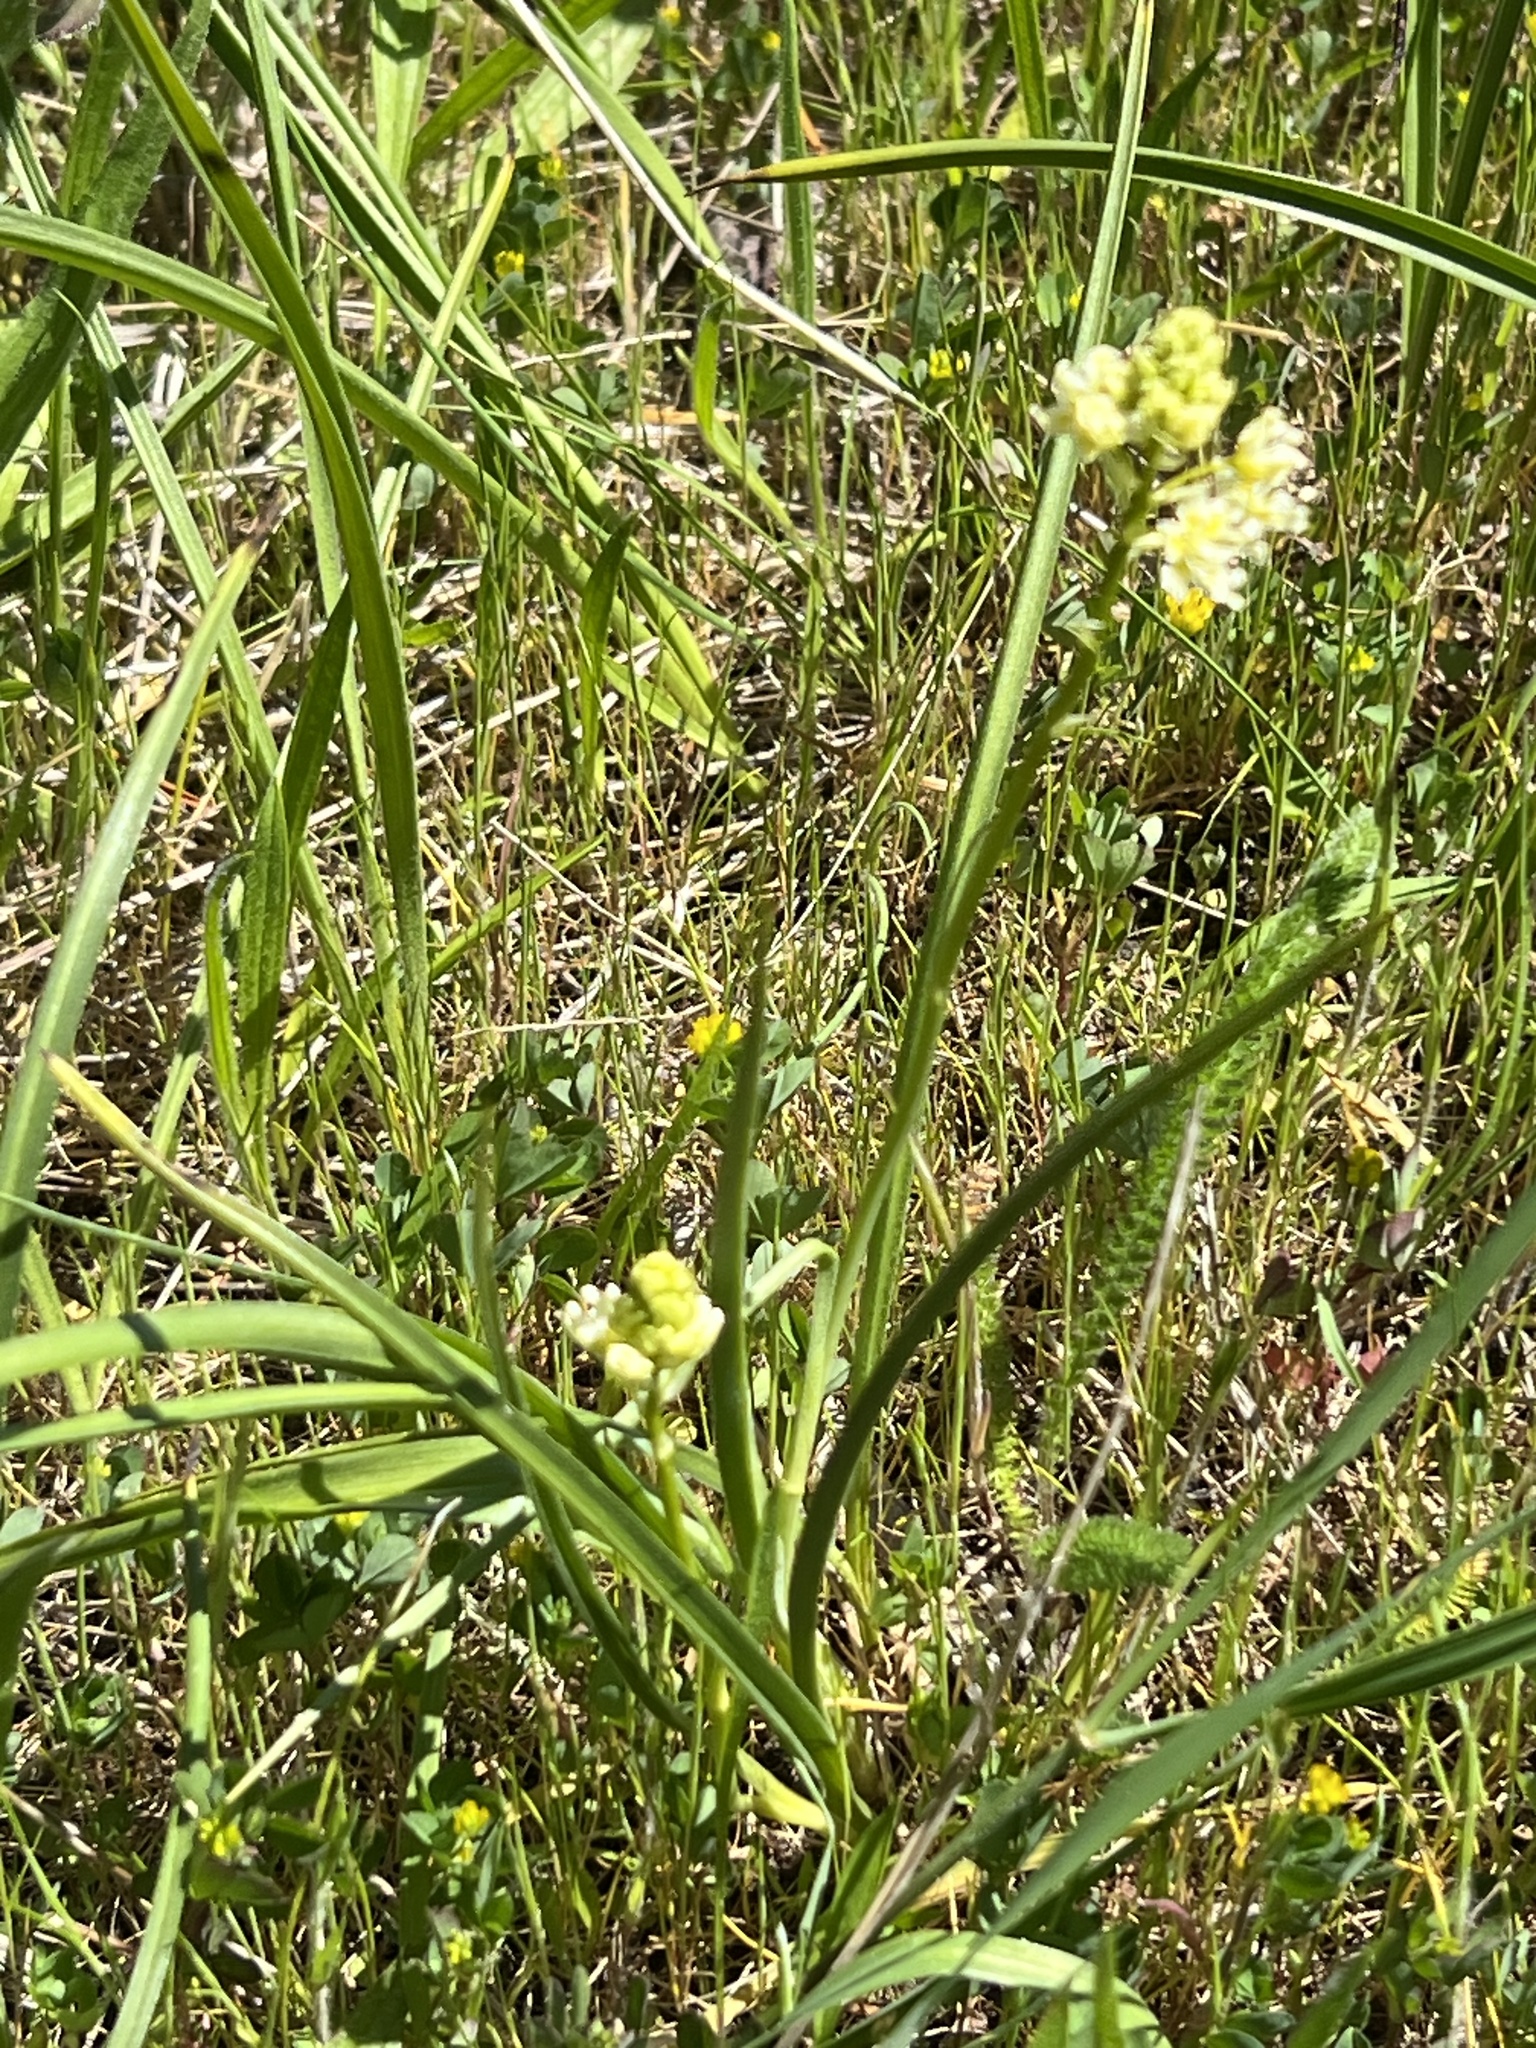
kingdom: Plantae
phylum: Tracheophyta
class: Liliopsida
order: Liliales
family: Melanthiaceae
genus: Toxicoscordion
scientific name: Toxicoscordion venenosum
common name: Meadow death camas
